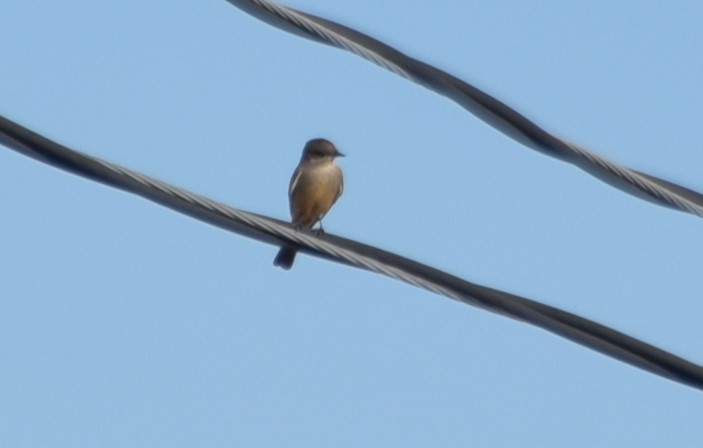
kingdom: Animalia
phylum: Chordata
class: Aves
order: Passeriformes
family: Tyrannidae
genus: Sayornis
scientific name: Sayornis saya
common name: Say's phoebe
